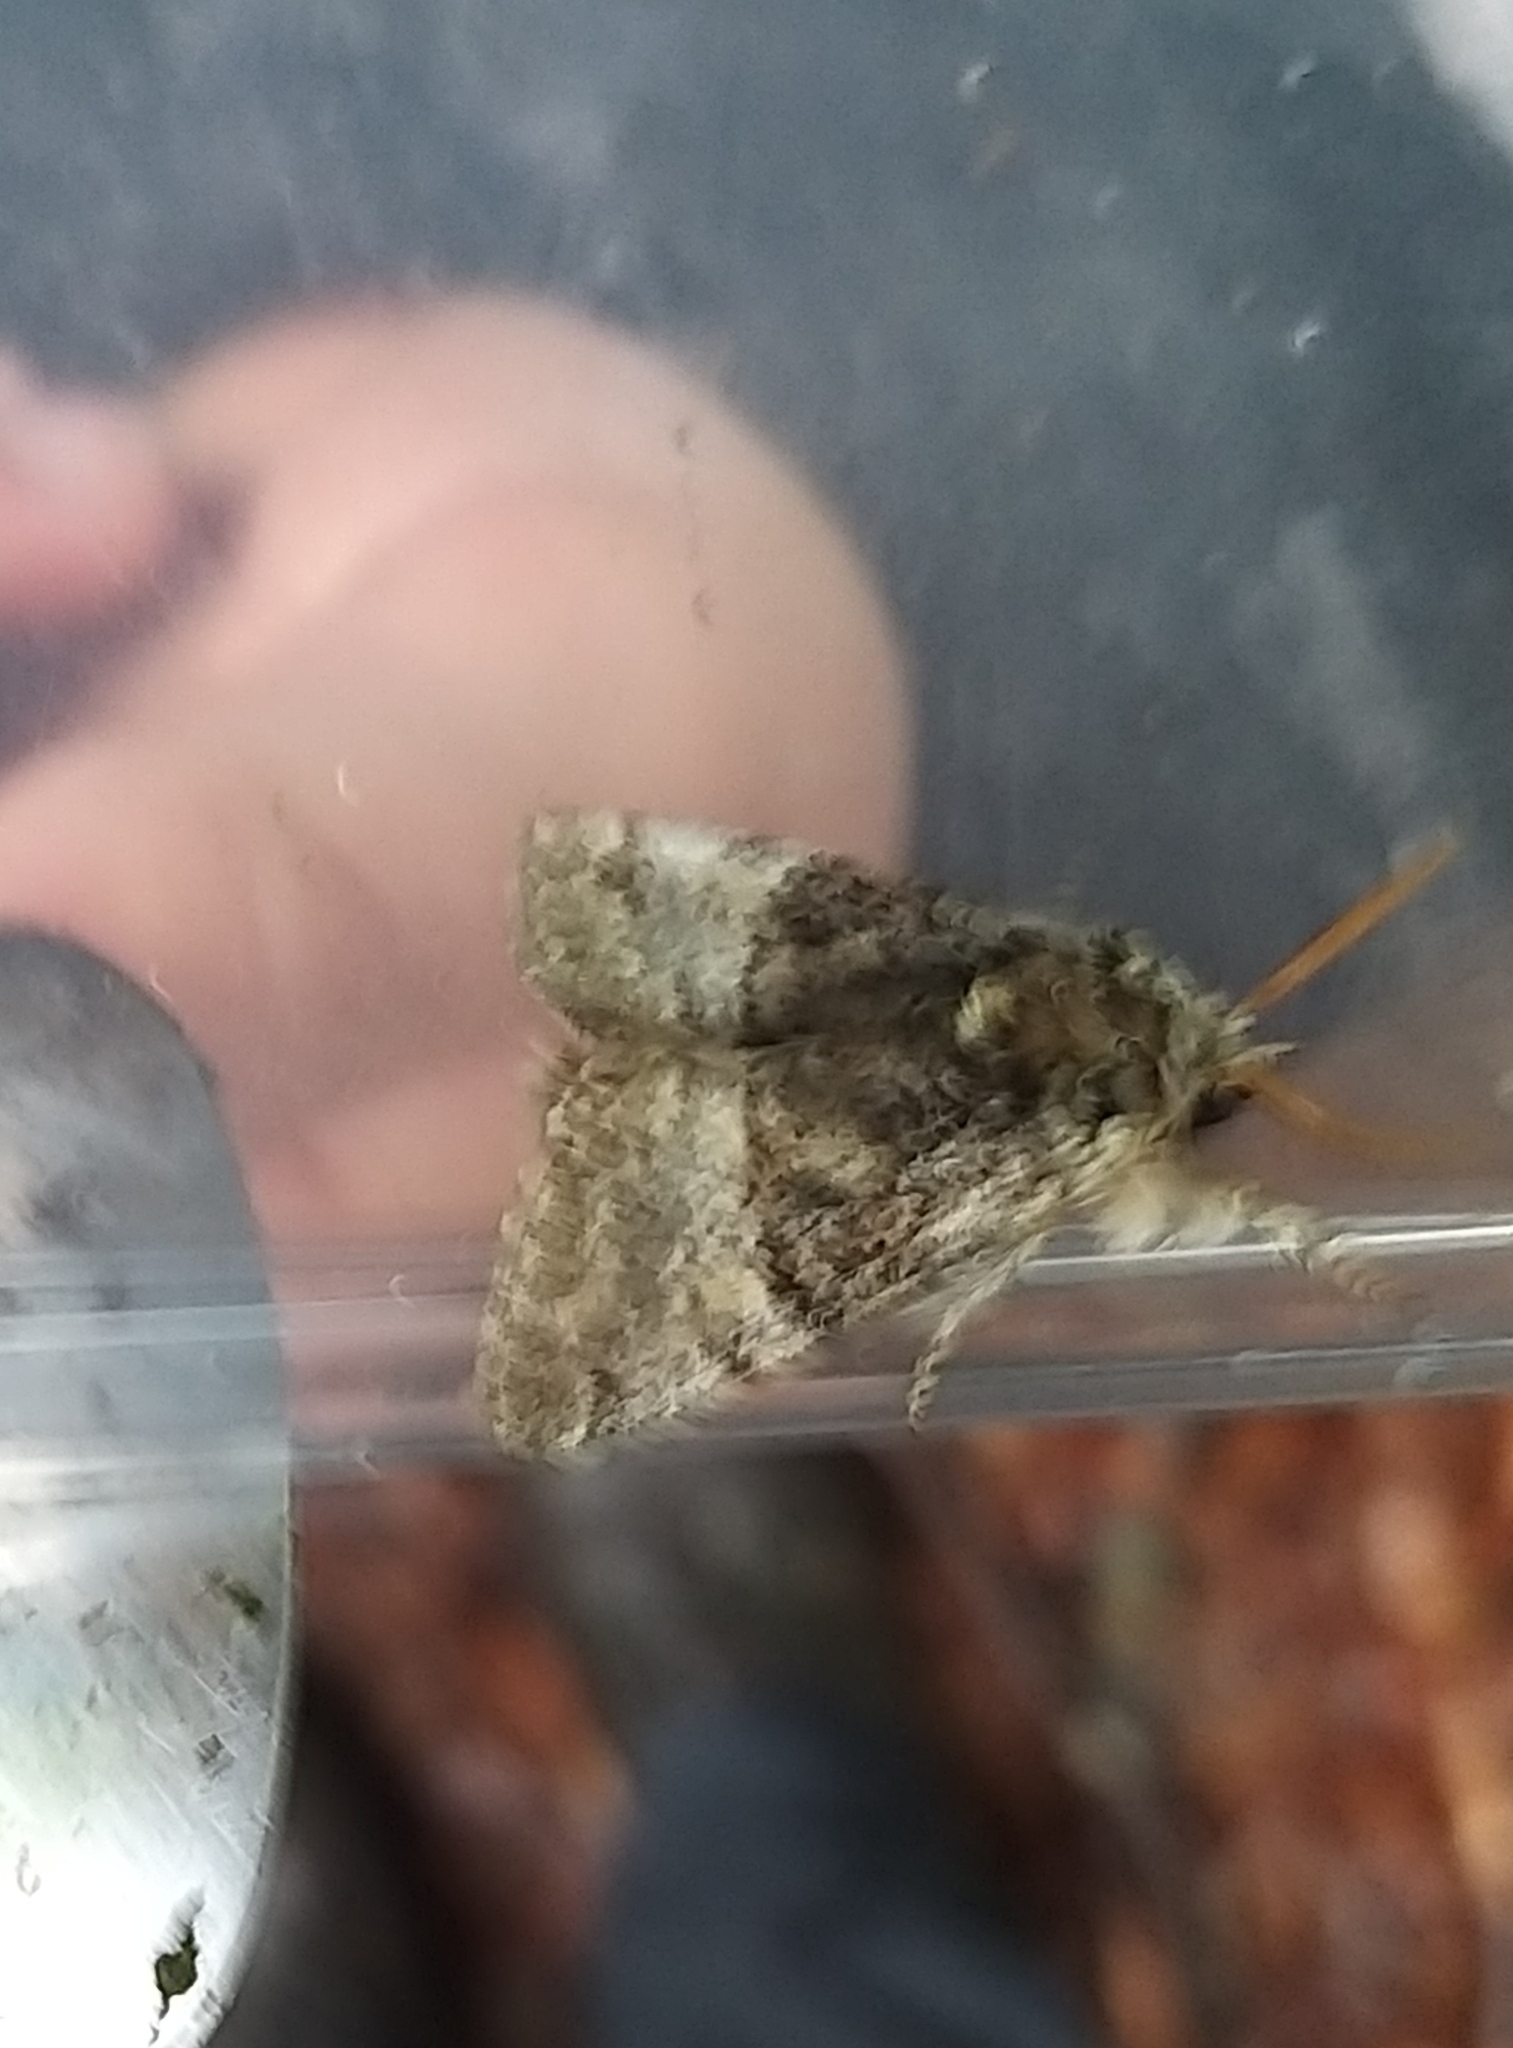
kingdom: Animalia
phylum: Arthropoda
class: Insecta
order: Lepidoptera
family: Noctuidae
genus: Colocasia
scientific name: Colocasia coryli
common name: Nut-tree tussock
